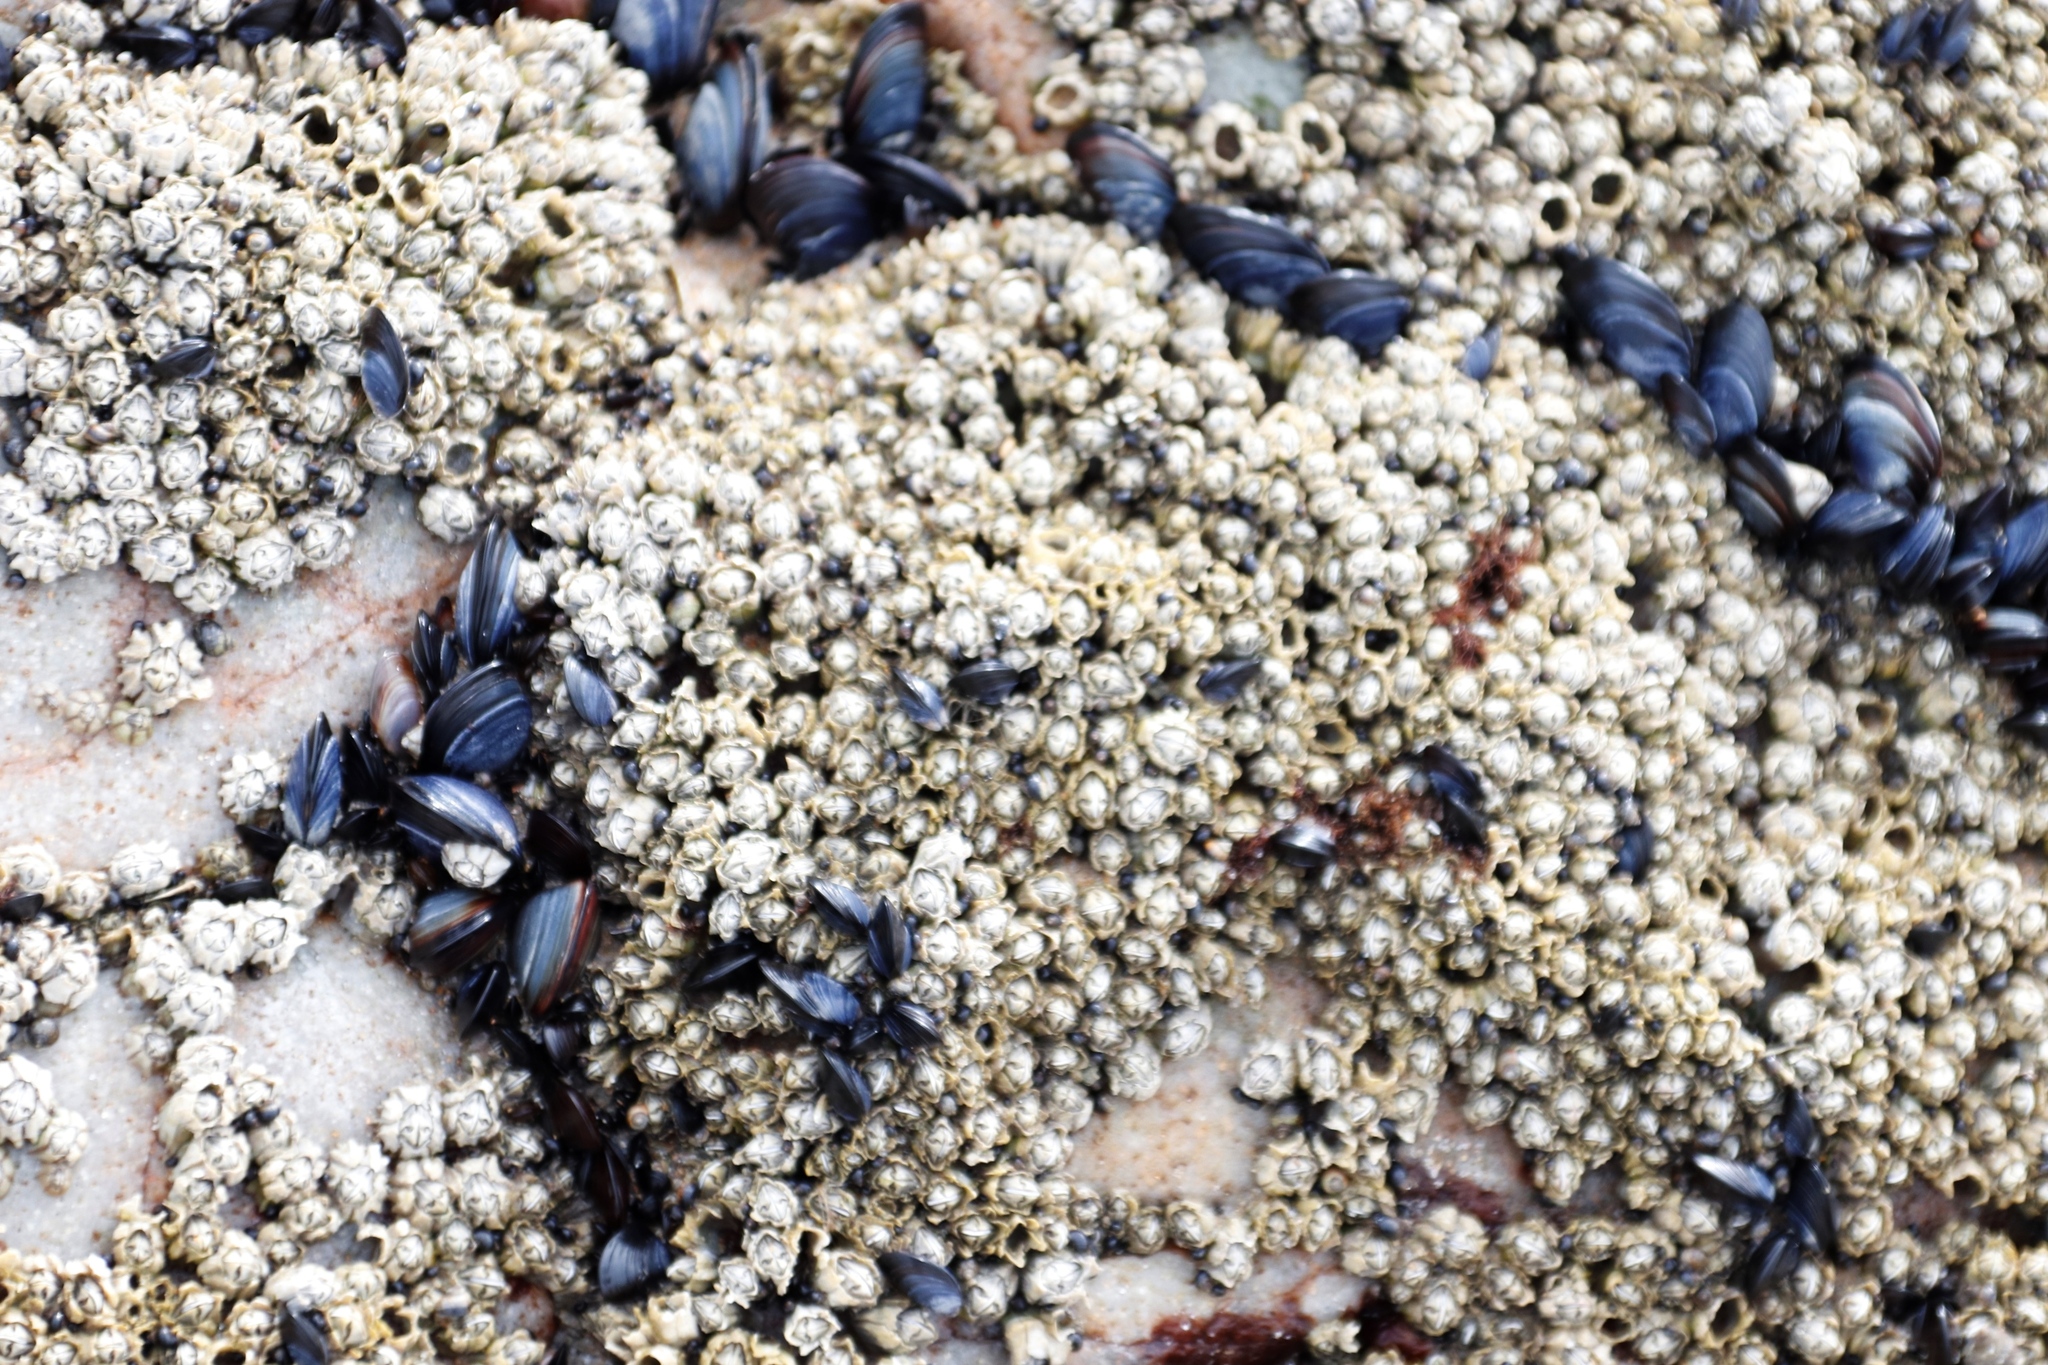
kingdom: Animalia
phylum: Arthropoda
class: Maxillopoda
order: Sessilia
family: Chthamalidae
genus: Chthamalus
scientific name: Chthamalus dentatus
